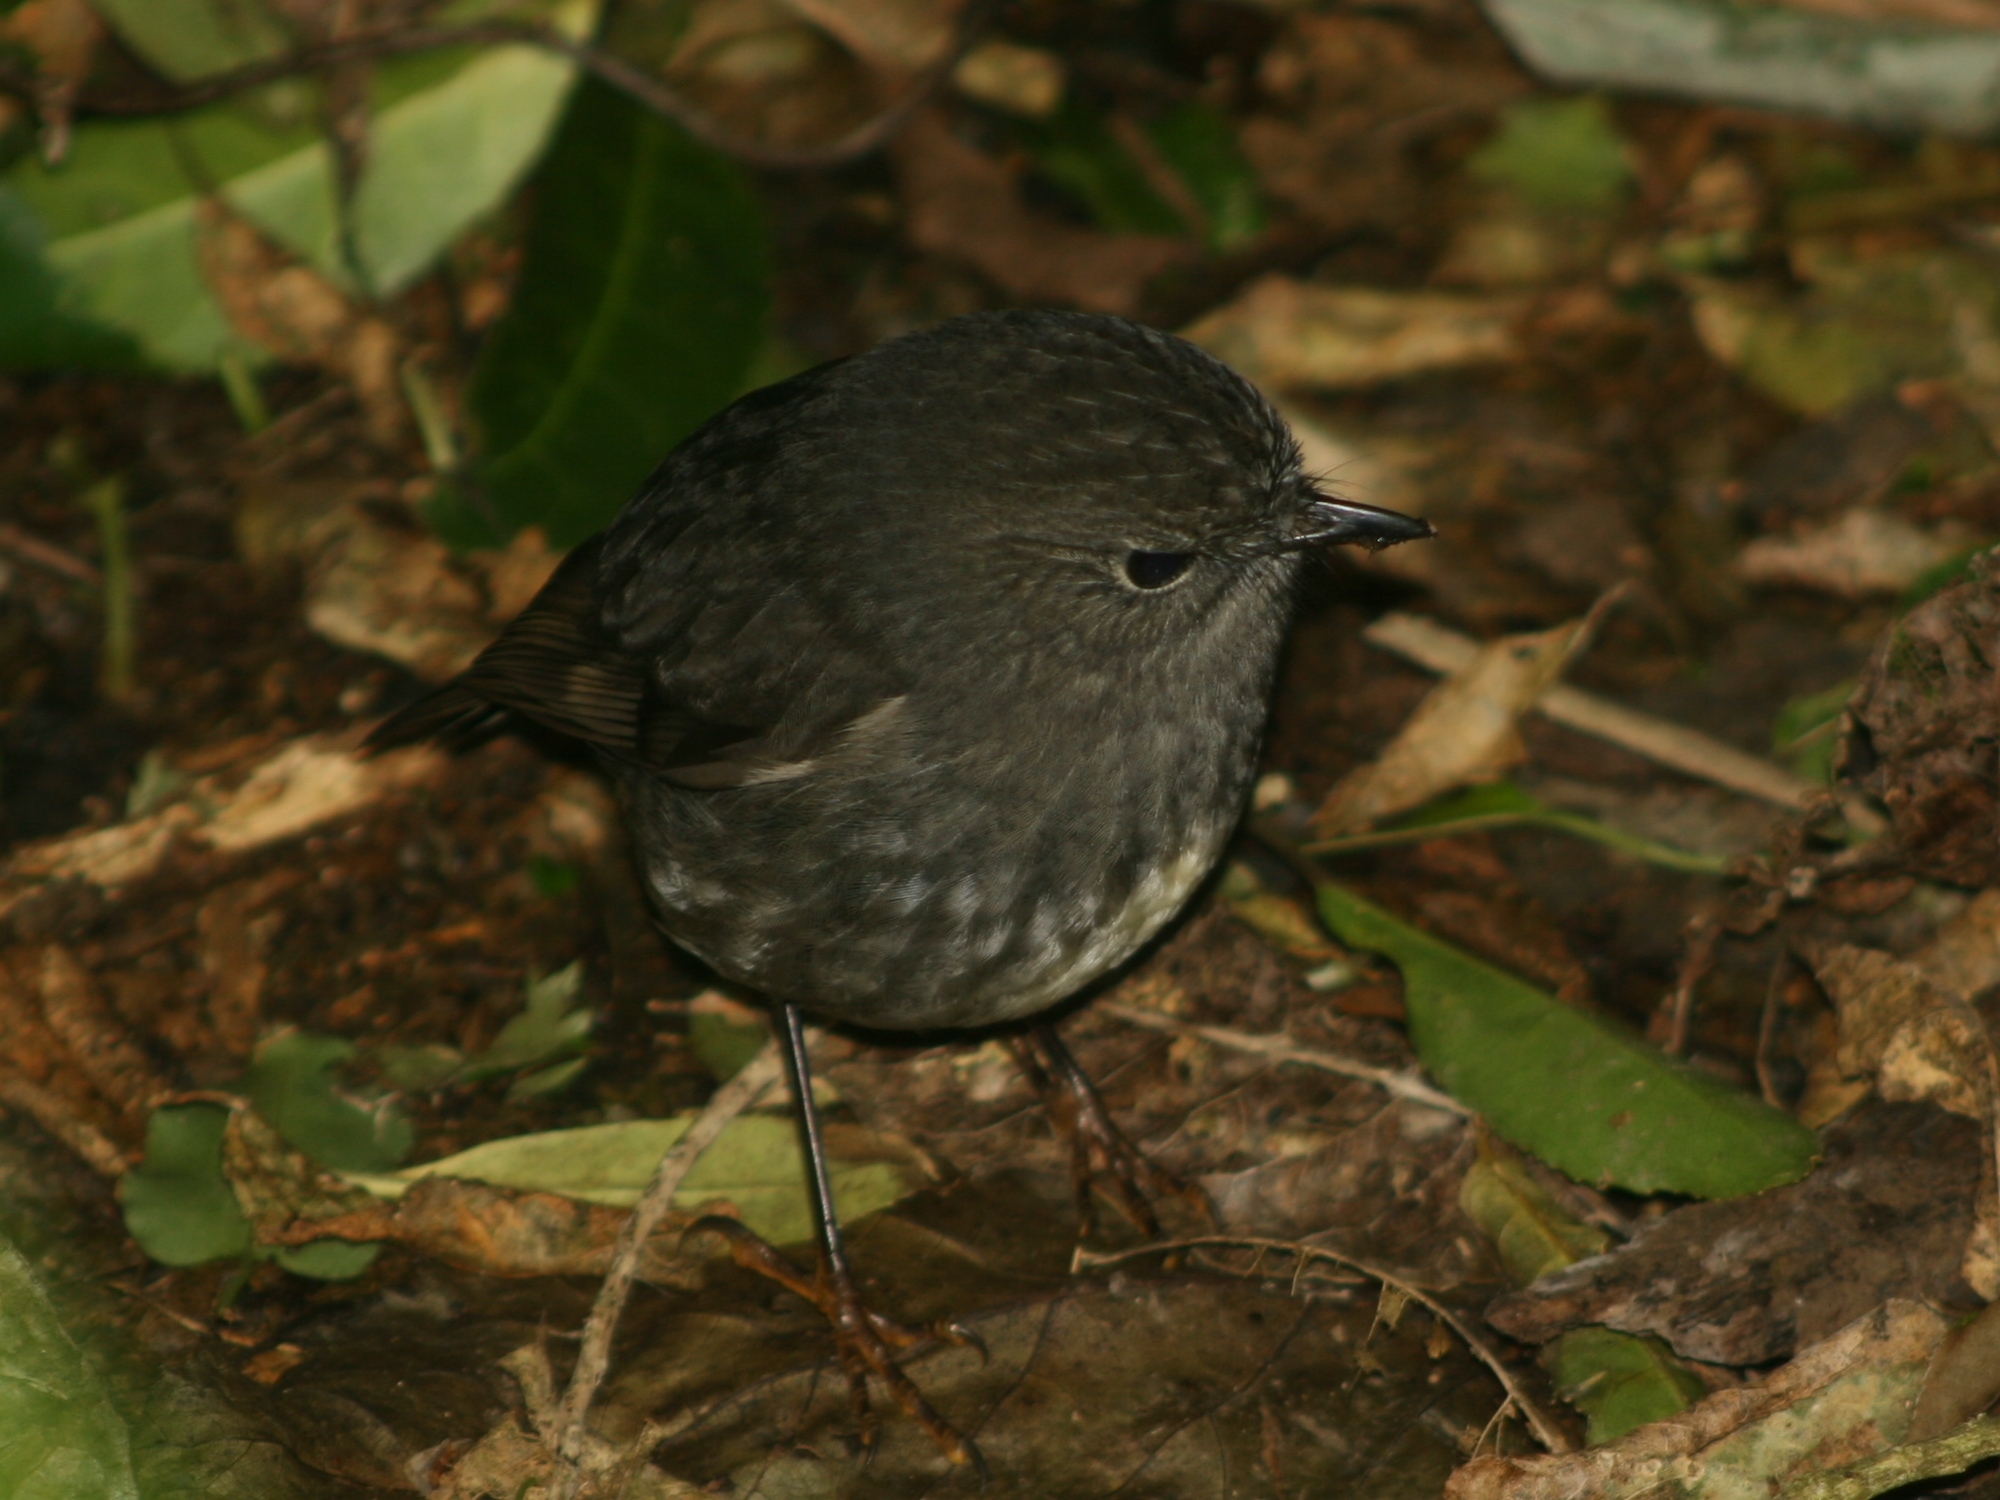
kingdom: Animalia
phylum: Chordata
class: Aves
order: Passeriformes
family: Petroicidae
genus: Petroica
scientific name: Petroica australis
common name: New zealand robin
